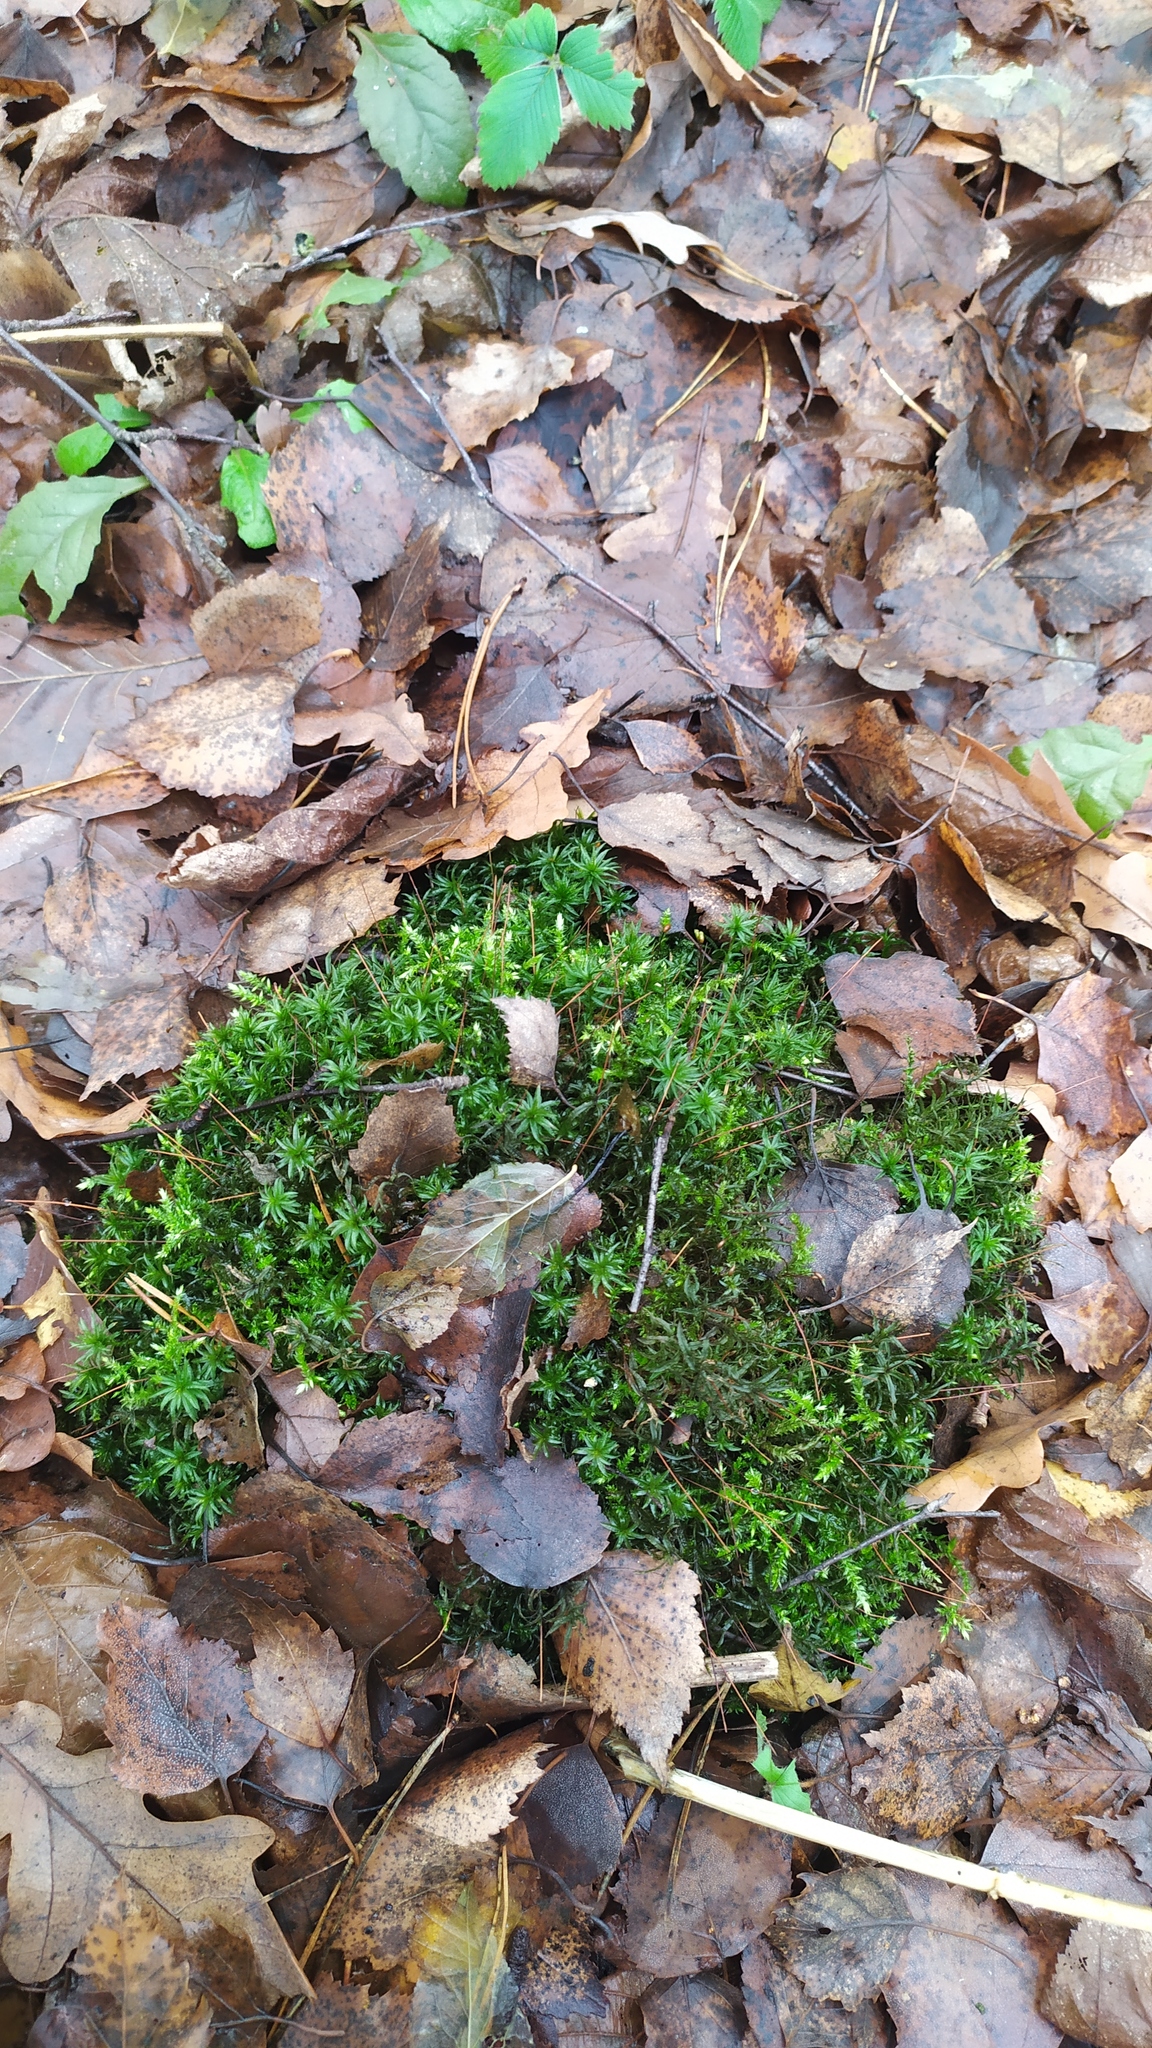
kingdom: Plantae
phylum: Bryophyta
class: Polytrichopsida
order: Polytrichales
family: Polytrichaceae
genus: Atrichum
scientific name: Atrichum undulatum
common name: Common smoothcap
